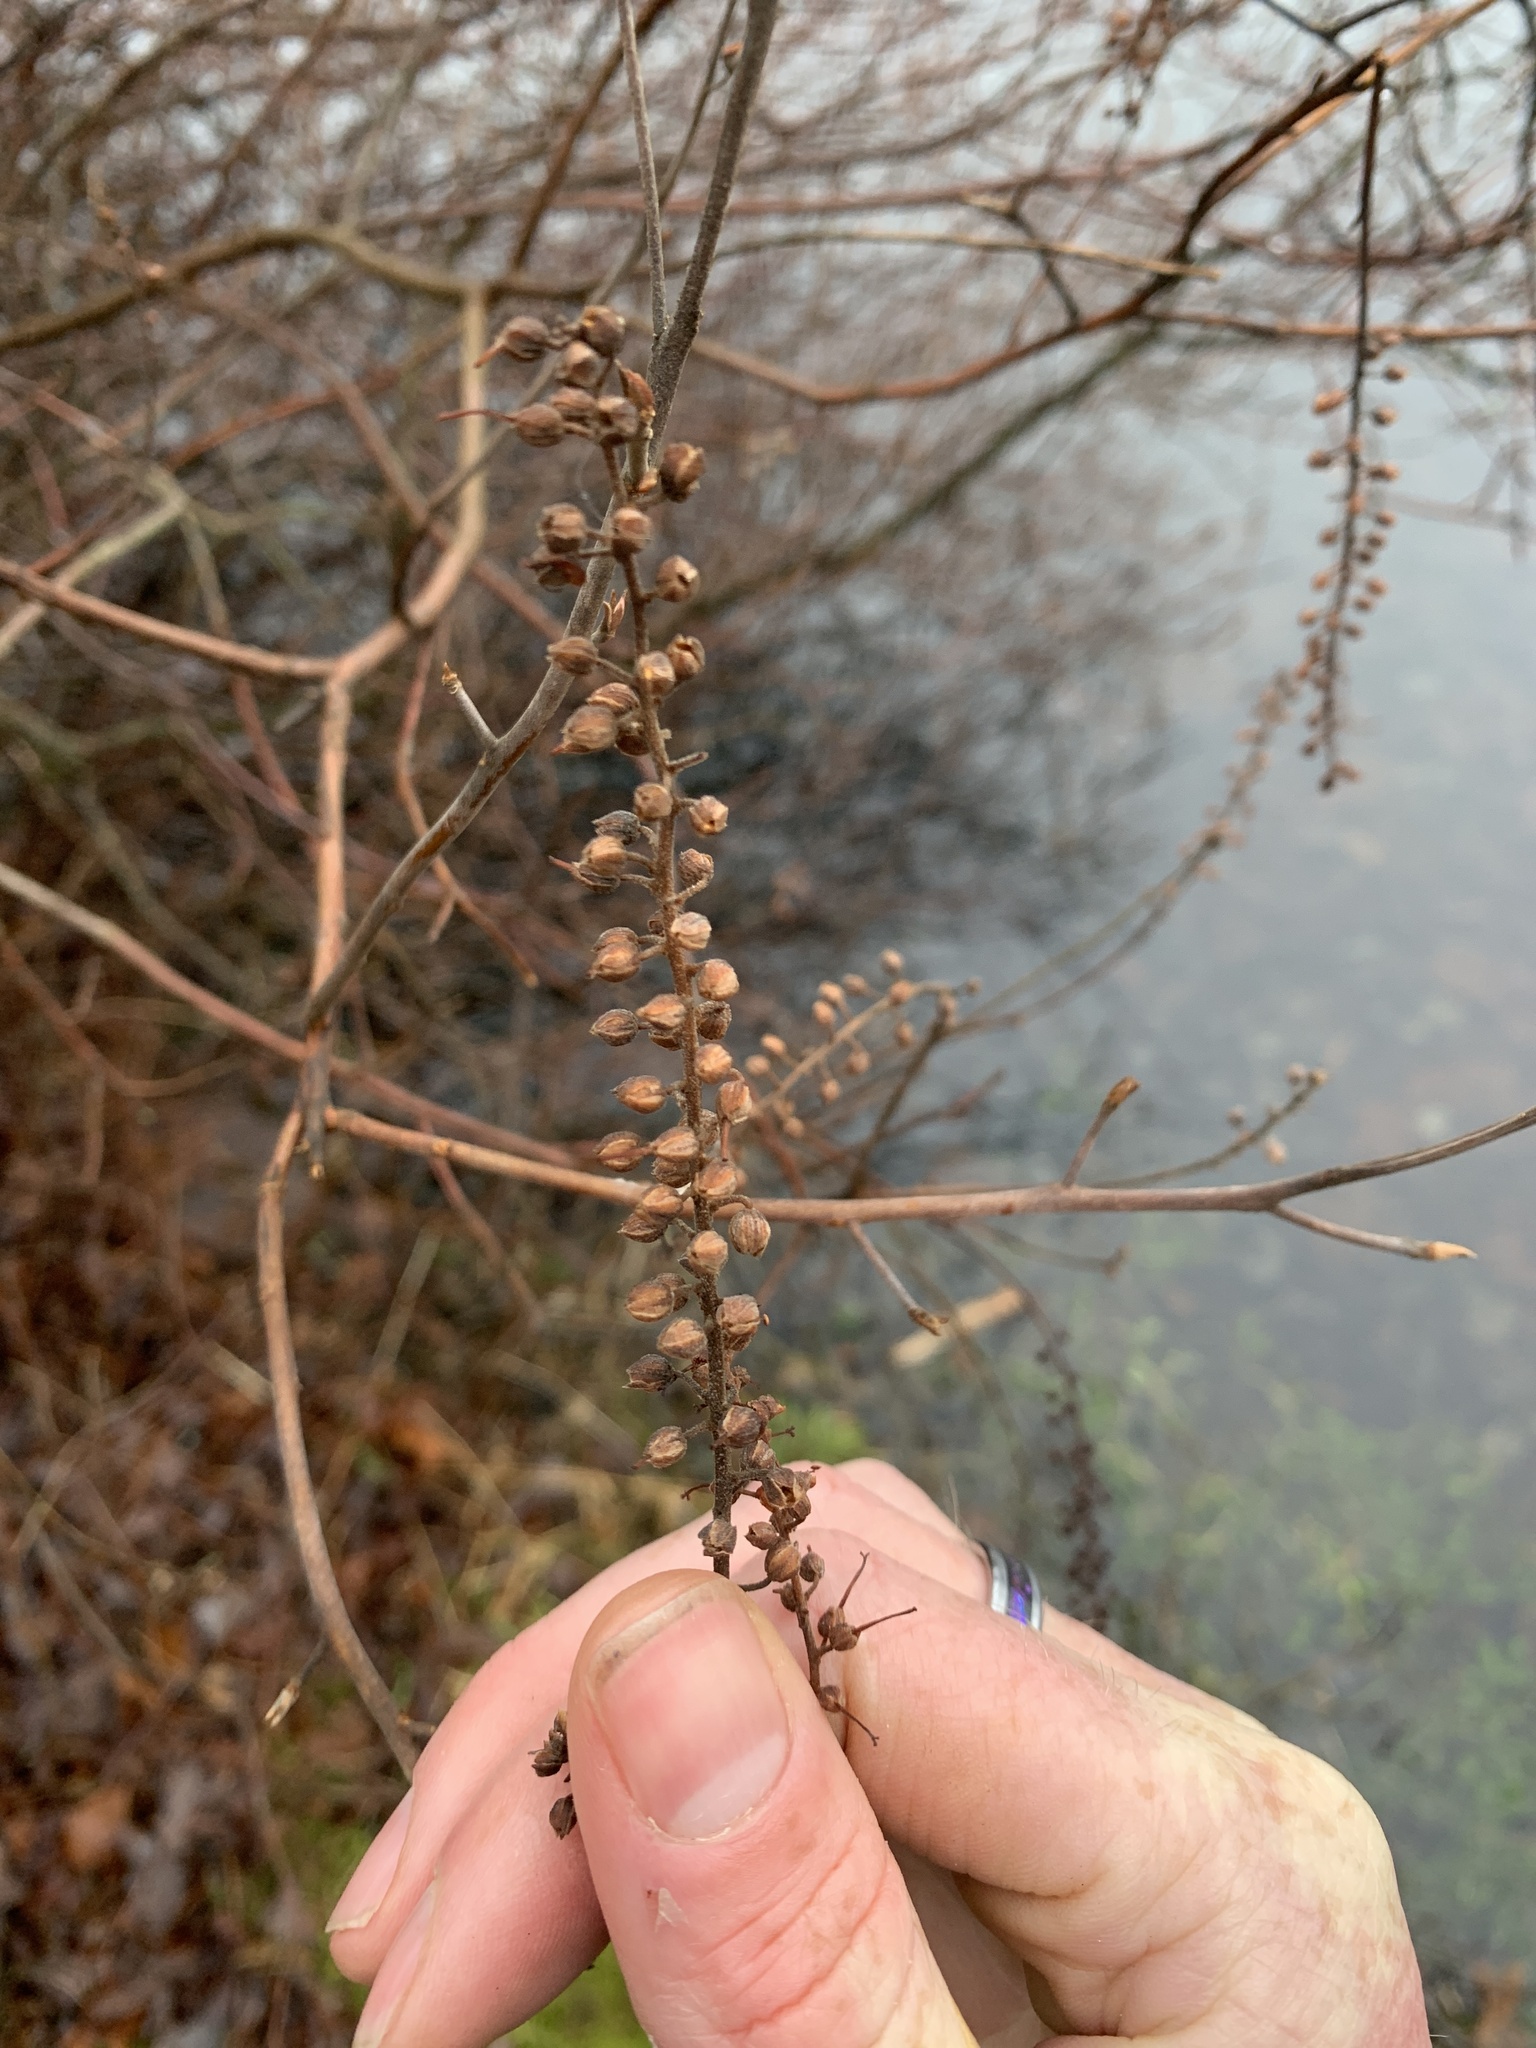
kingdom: Plantae
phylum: Tracheophyta
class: Magnoliopsida
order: Ericales
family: Clethraceae
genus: Clethra
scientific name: Clethra alnifolia
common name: Sweet pepperbush
